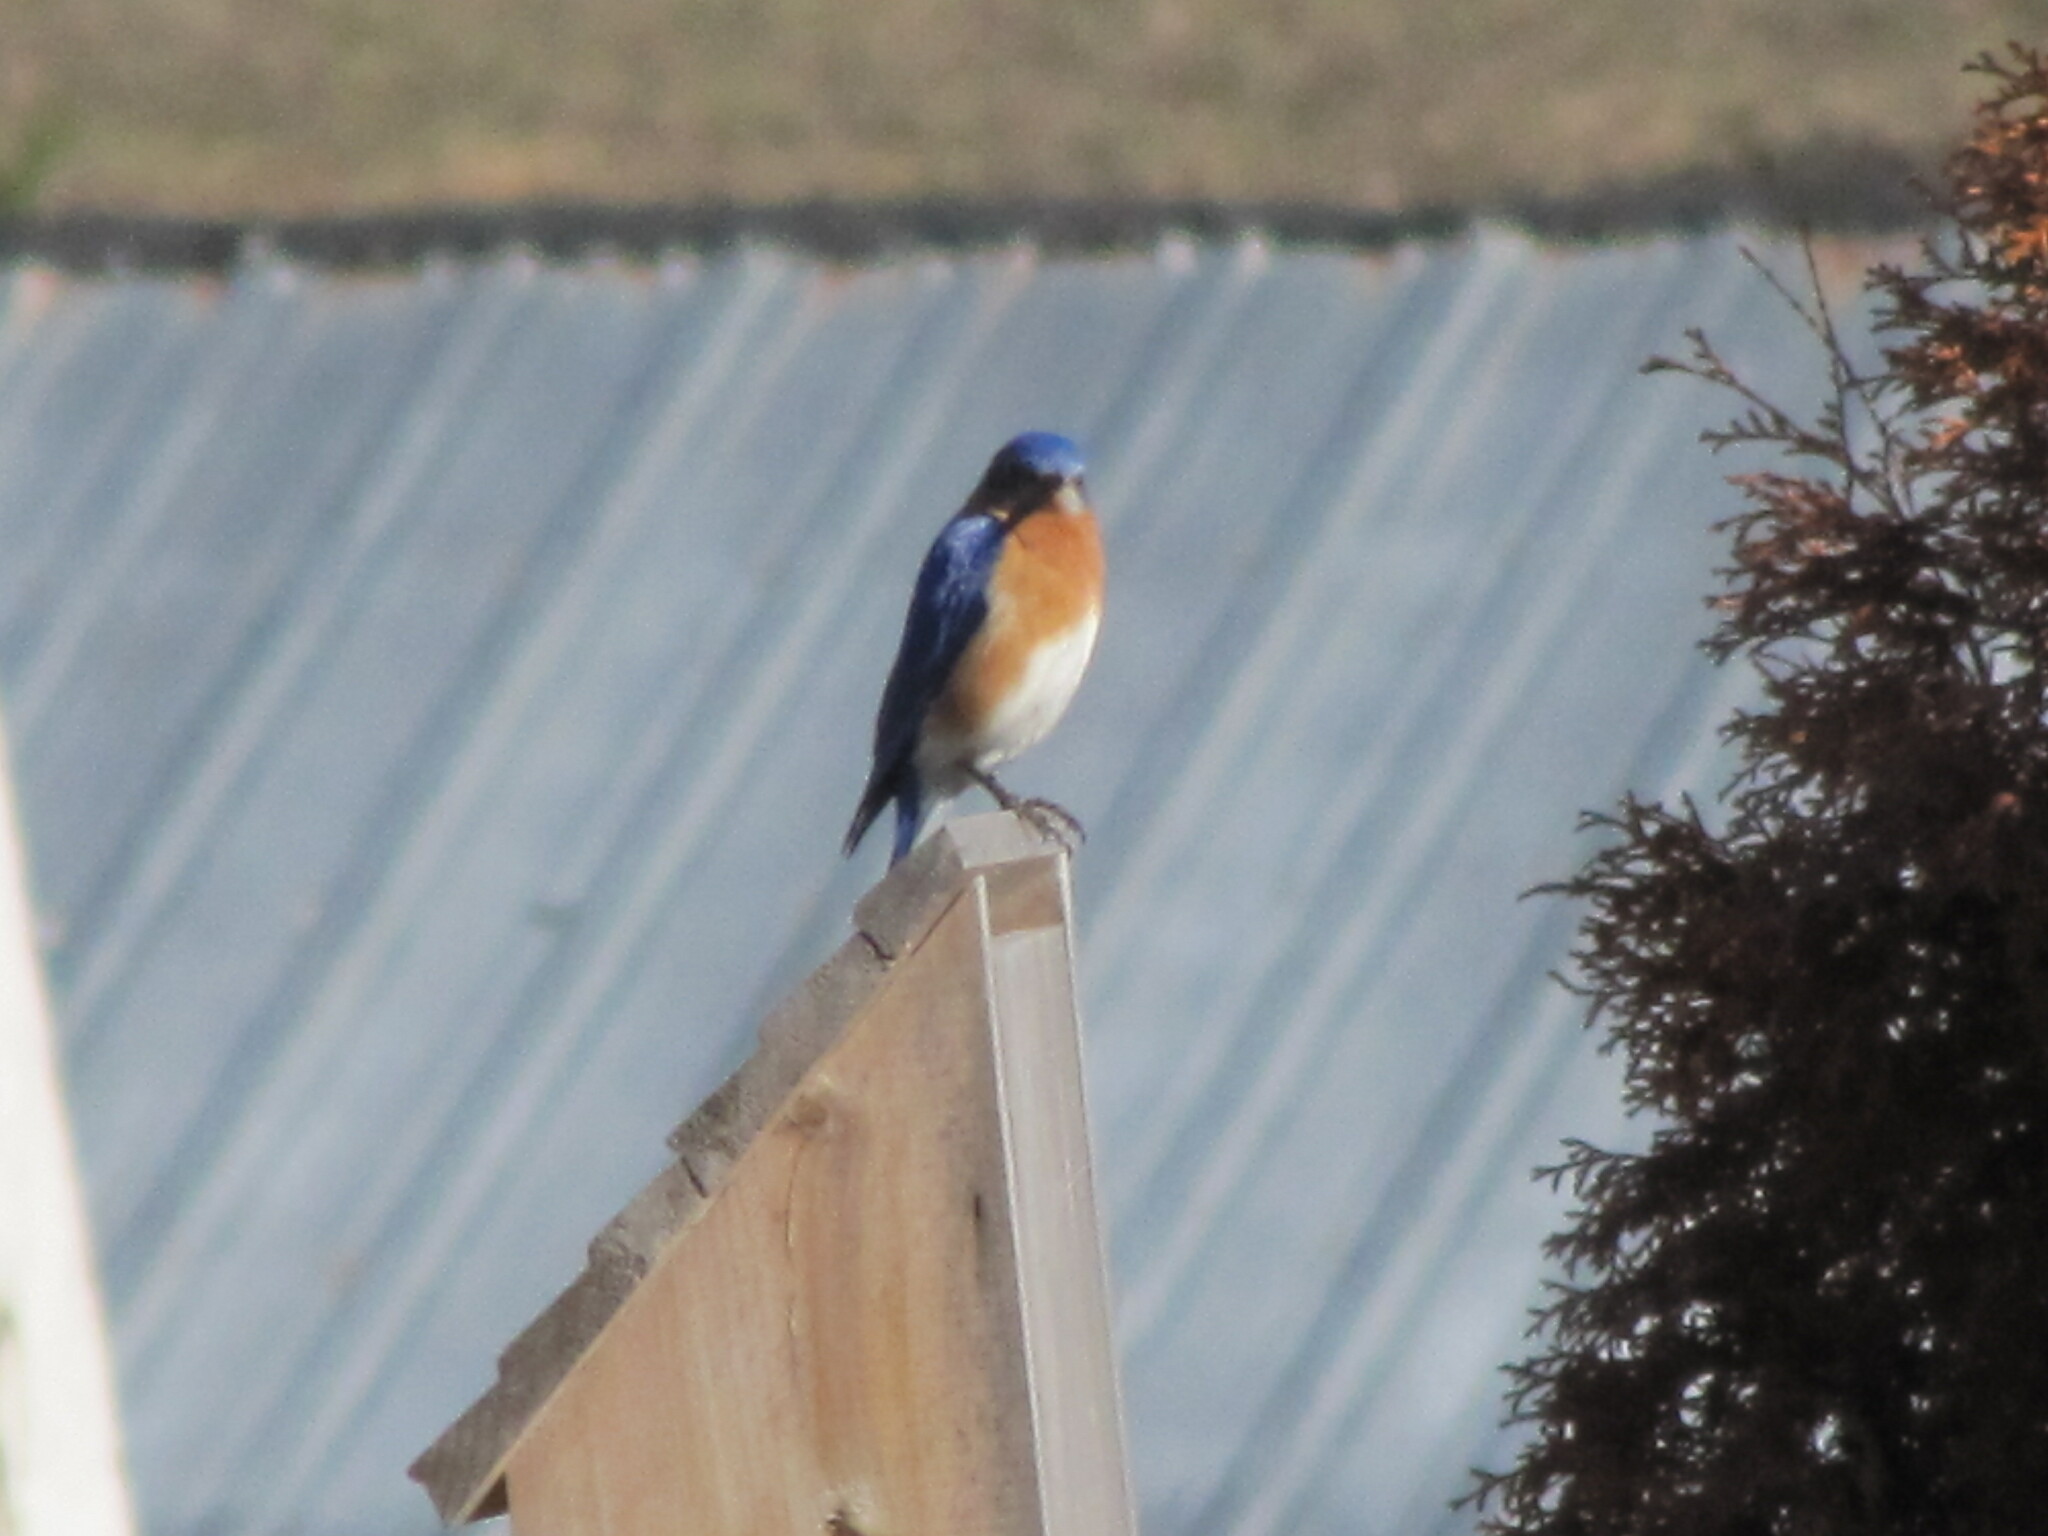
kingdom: Animalia
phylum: Chordata
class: Aves
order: Passeriformes
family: Turdidae
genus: Sialia
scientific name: Sialia sialis
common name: Eastern bluebird
